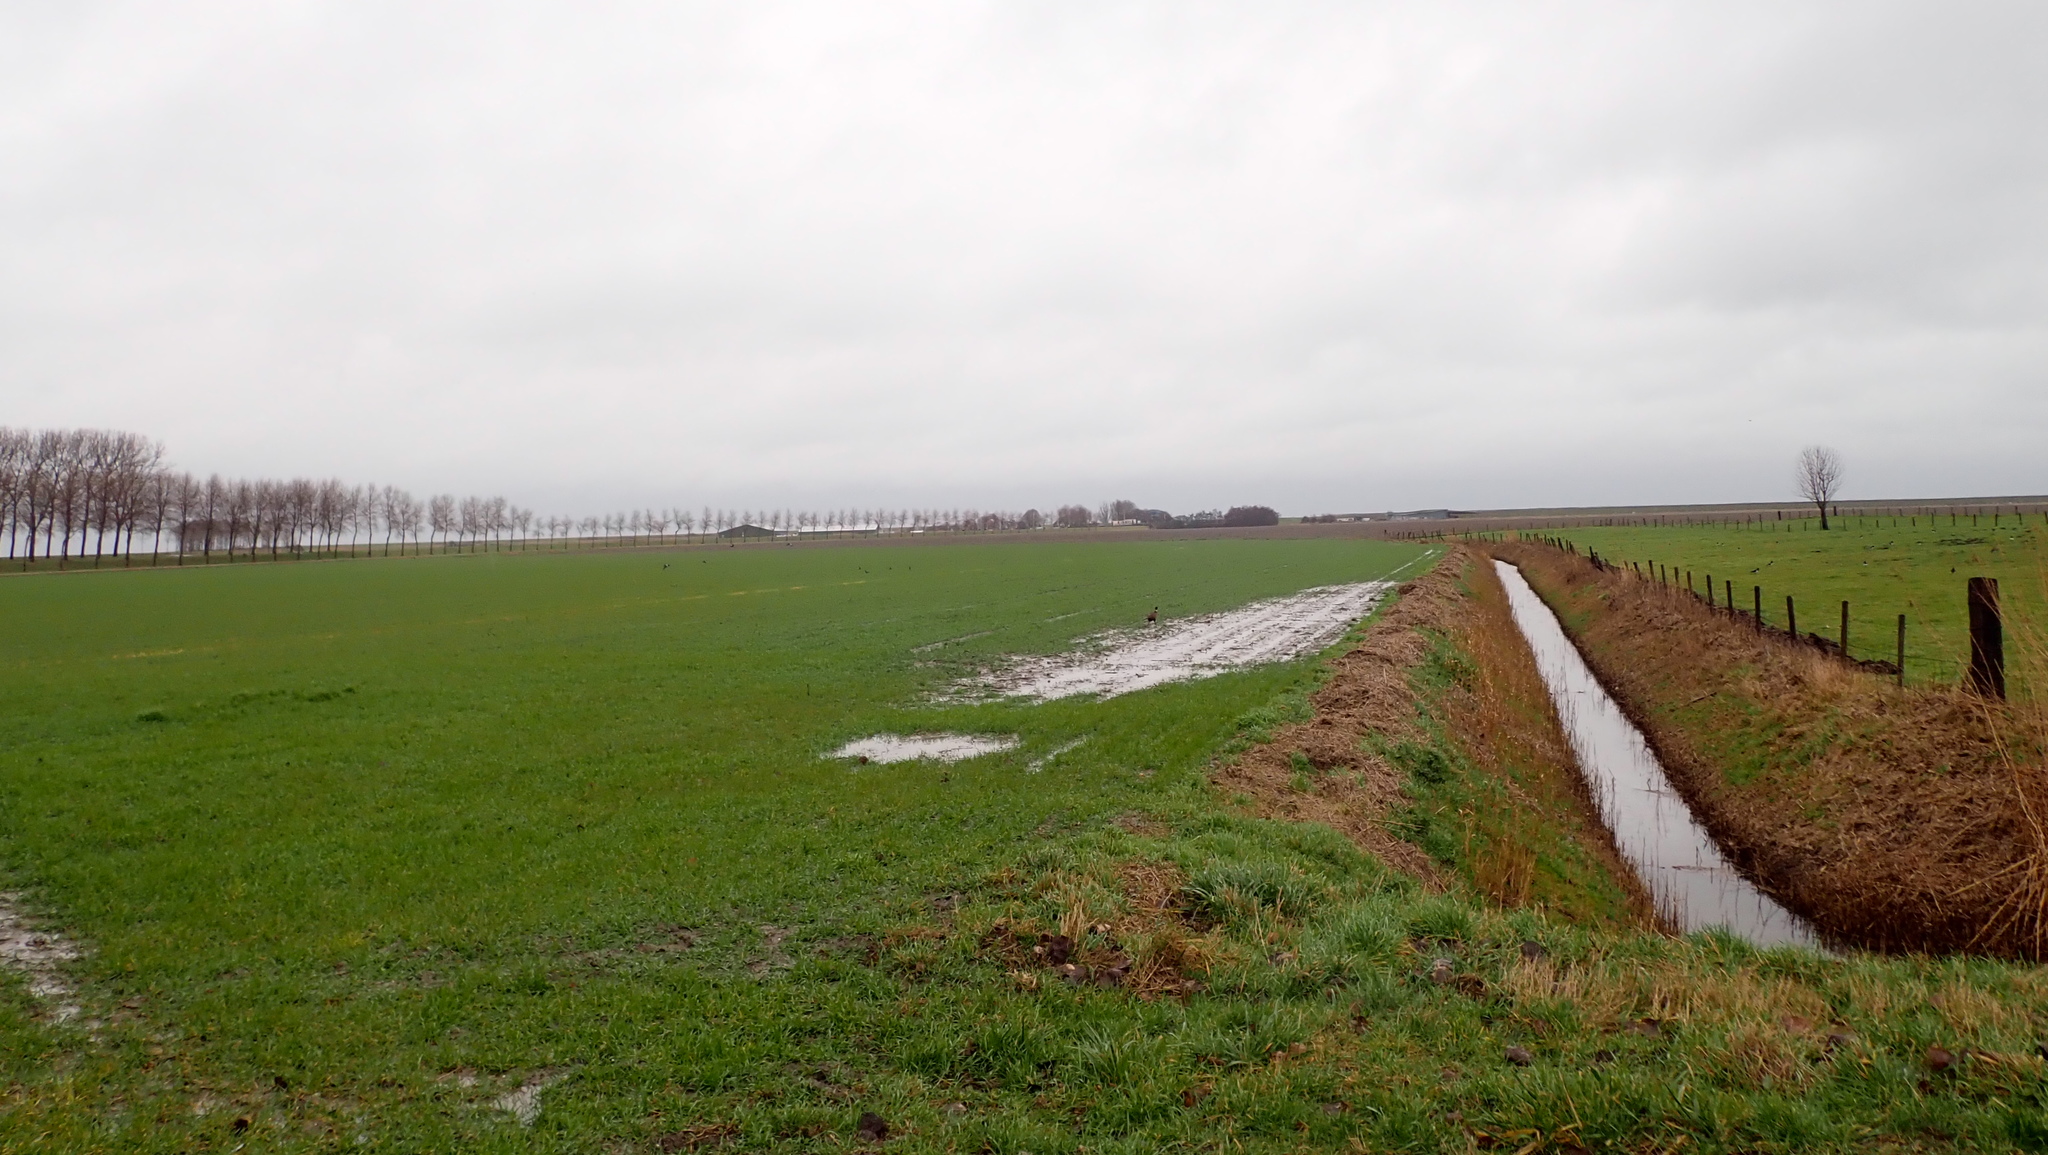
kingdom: Animalia
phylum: Chordata
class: Aves
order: Galliformes
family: Phasianidae
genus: Phasianus
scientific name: Phasianus colchicus
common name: Common pheasant
